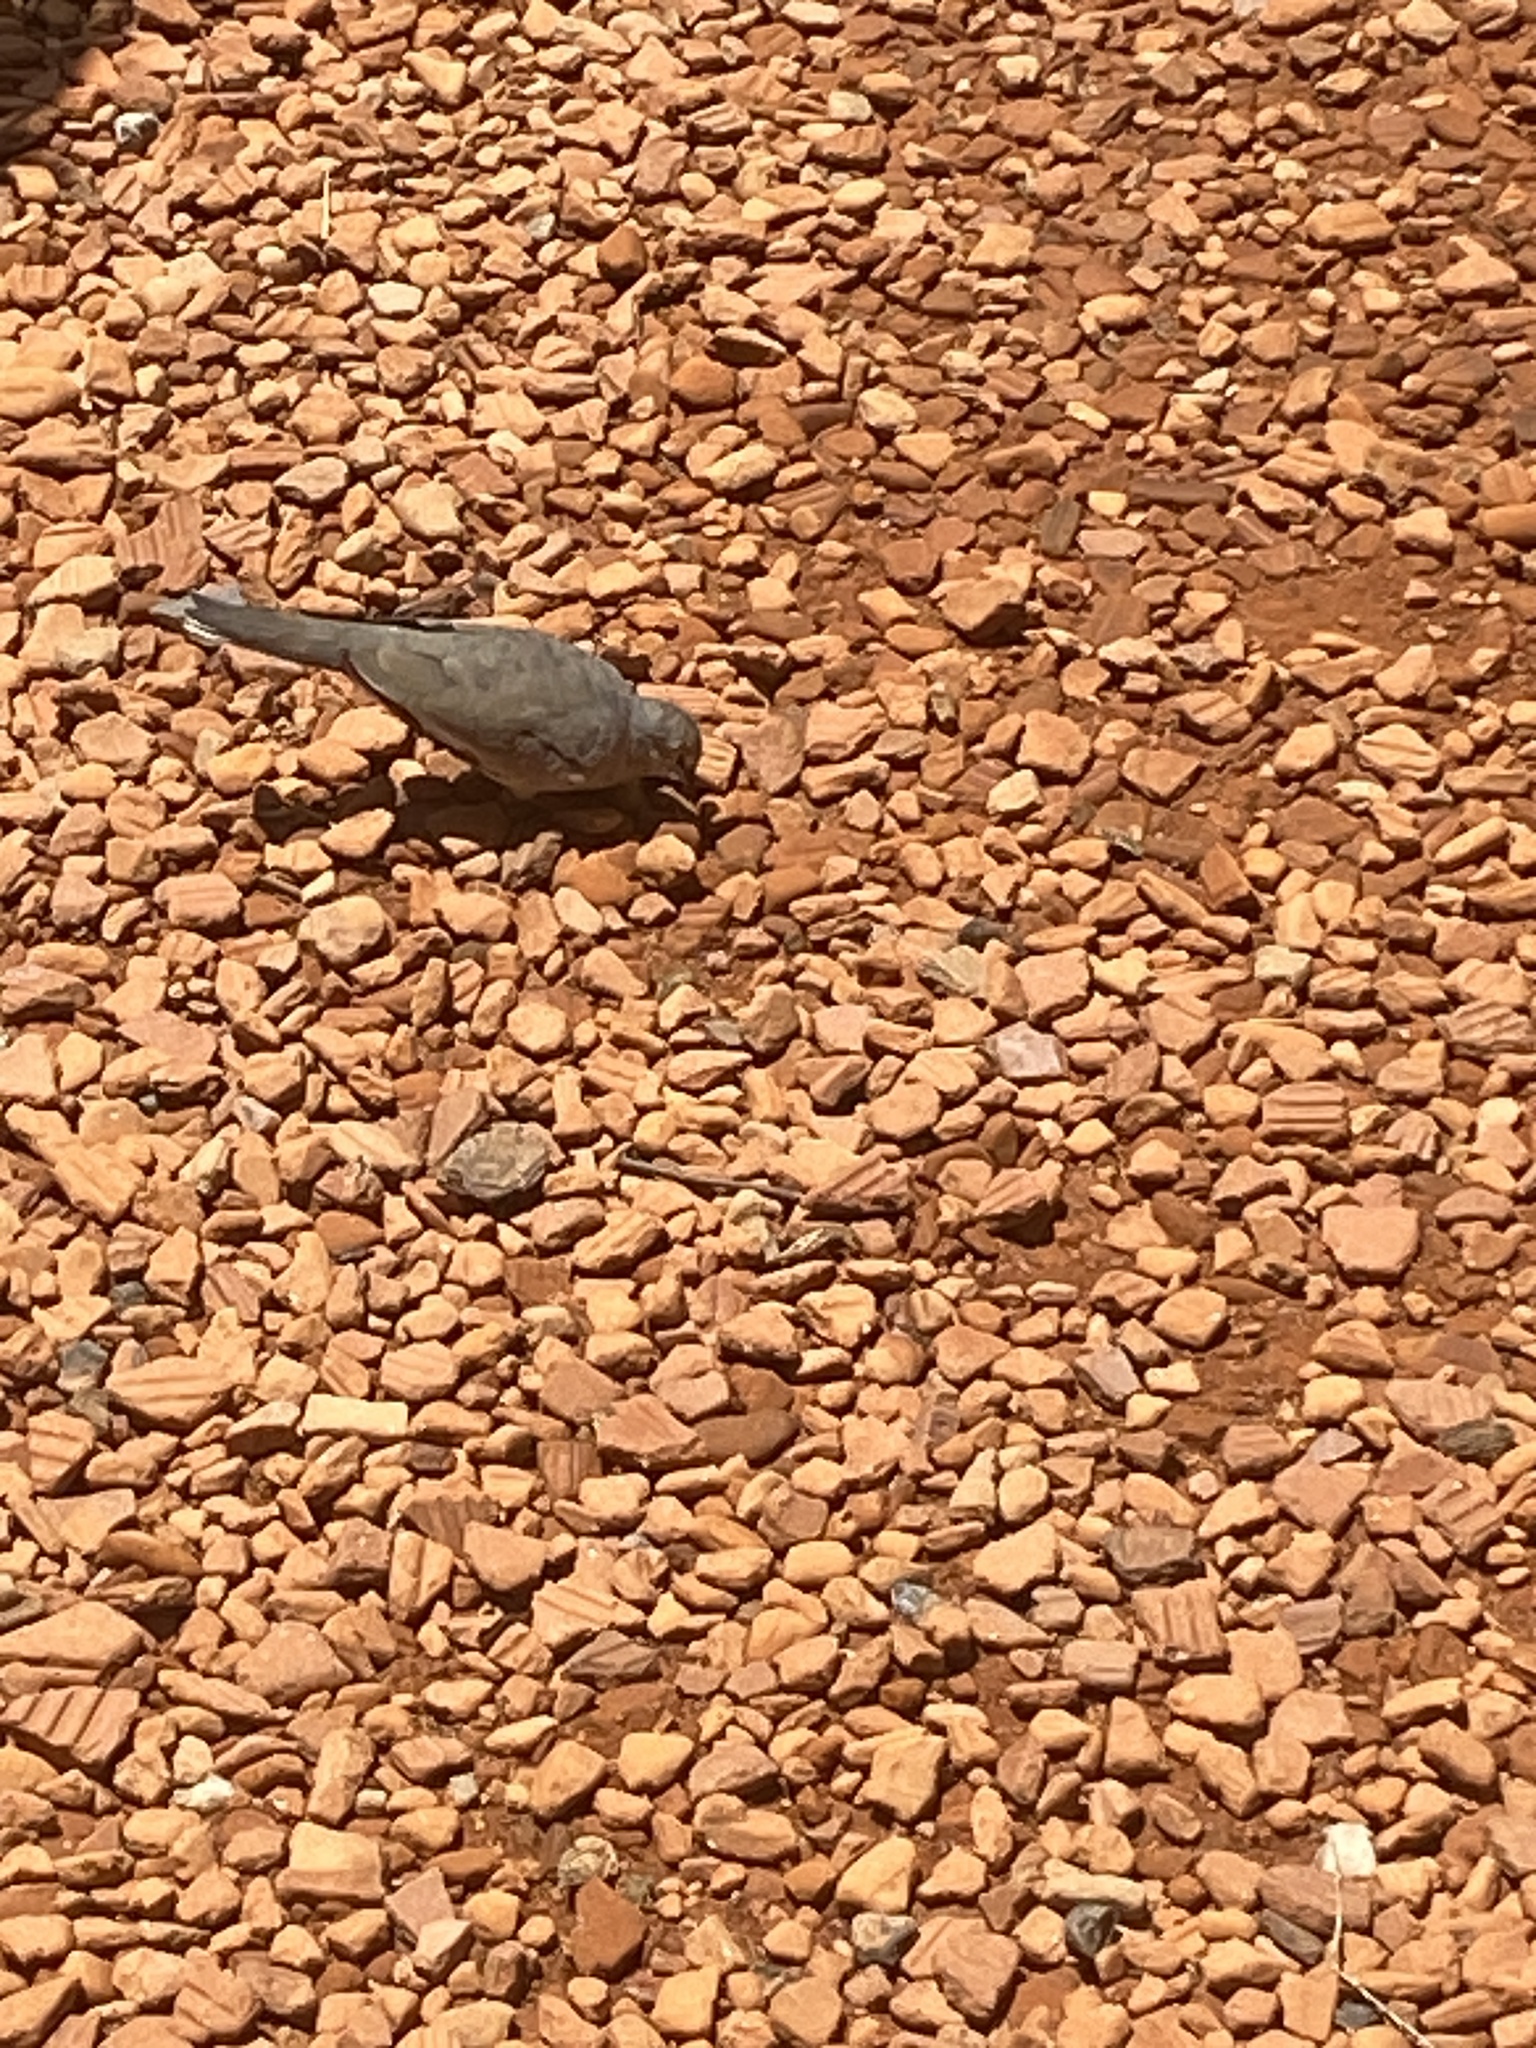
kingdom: Animalia
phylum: Chordata
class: Aves
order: Columbiformes
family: Columbidae
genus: Columbina
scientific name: Columbina picui
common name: Picui ground dove
